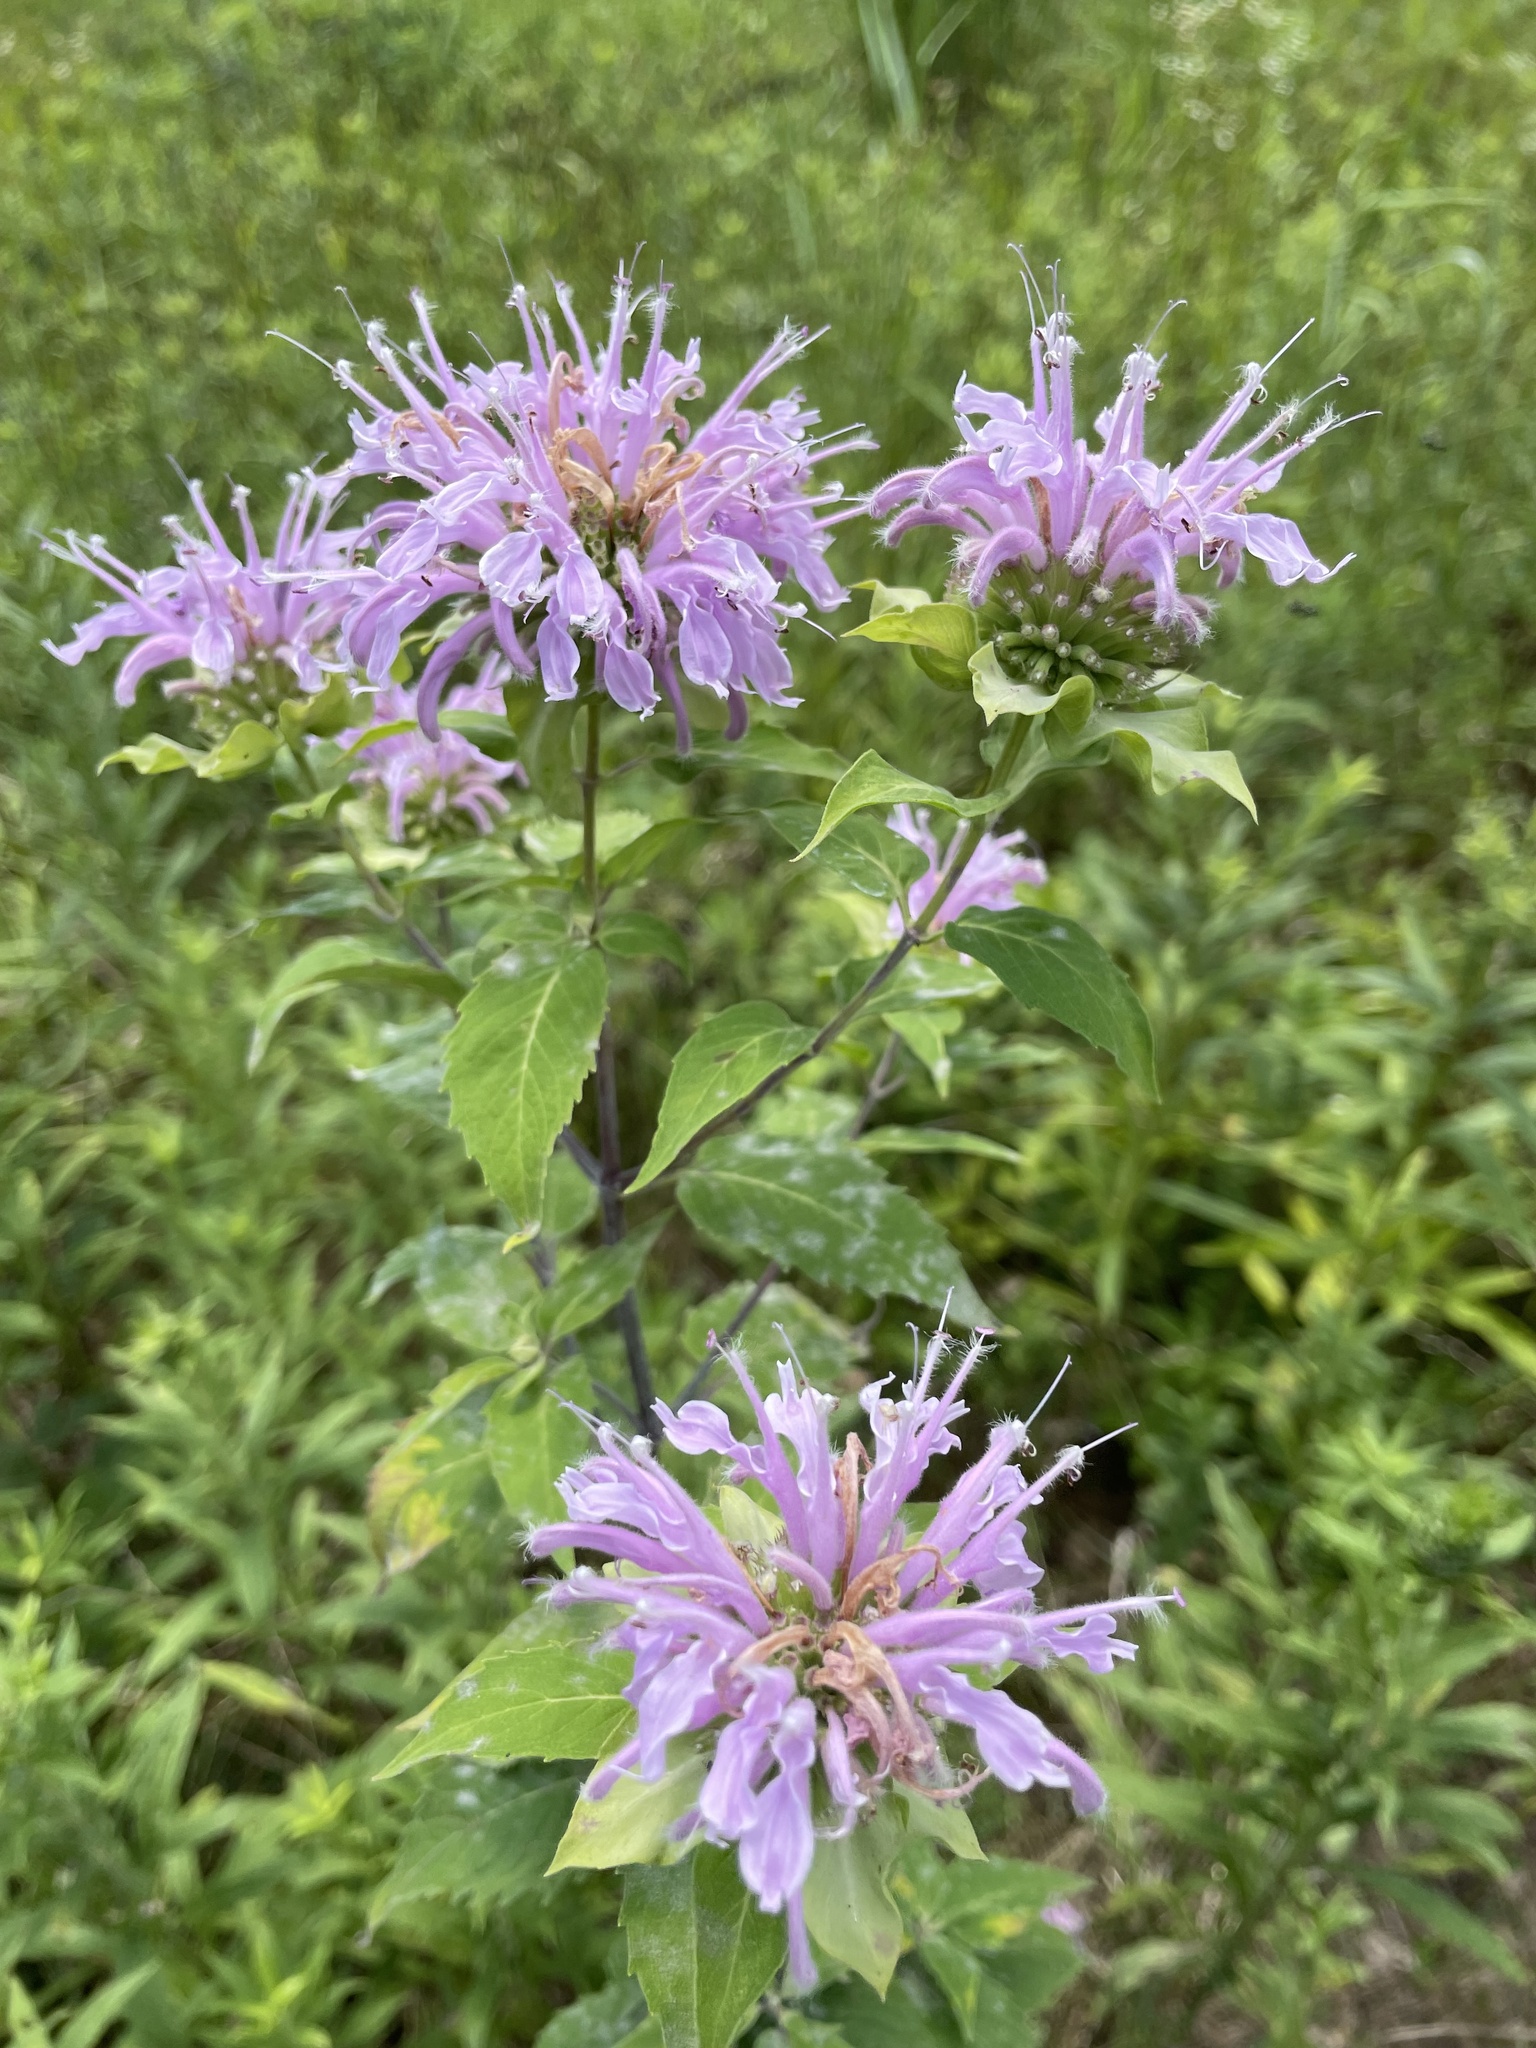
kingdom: Plantae
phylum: Tracheophyta
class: Magnoliopsida
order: Lamiales
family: Lamiaceae
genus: Monarda
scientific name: Monarda fistulosa
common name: Purple beebalm
